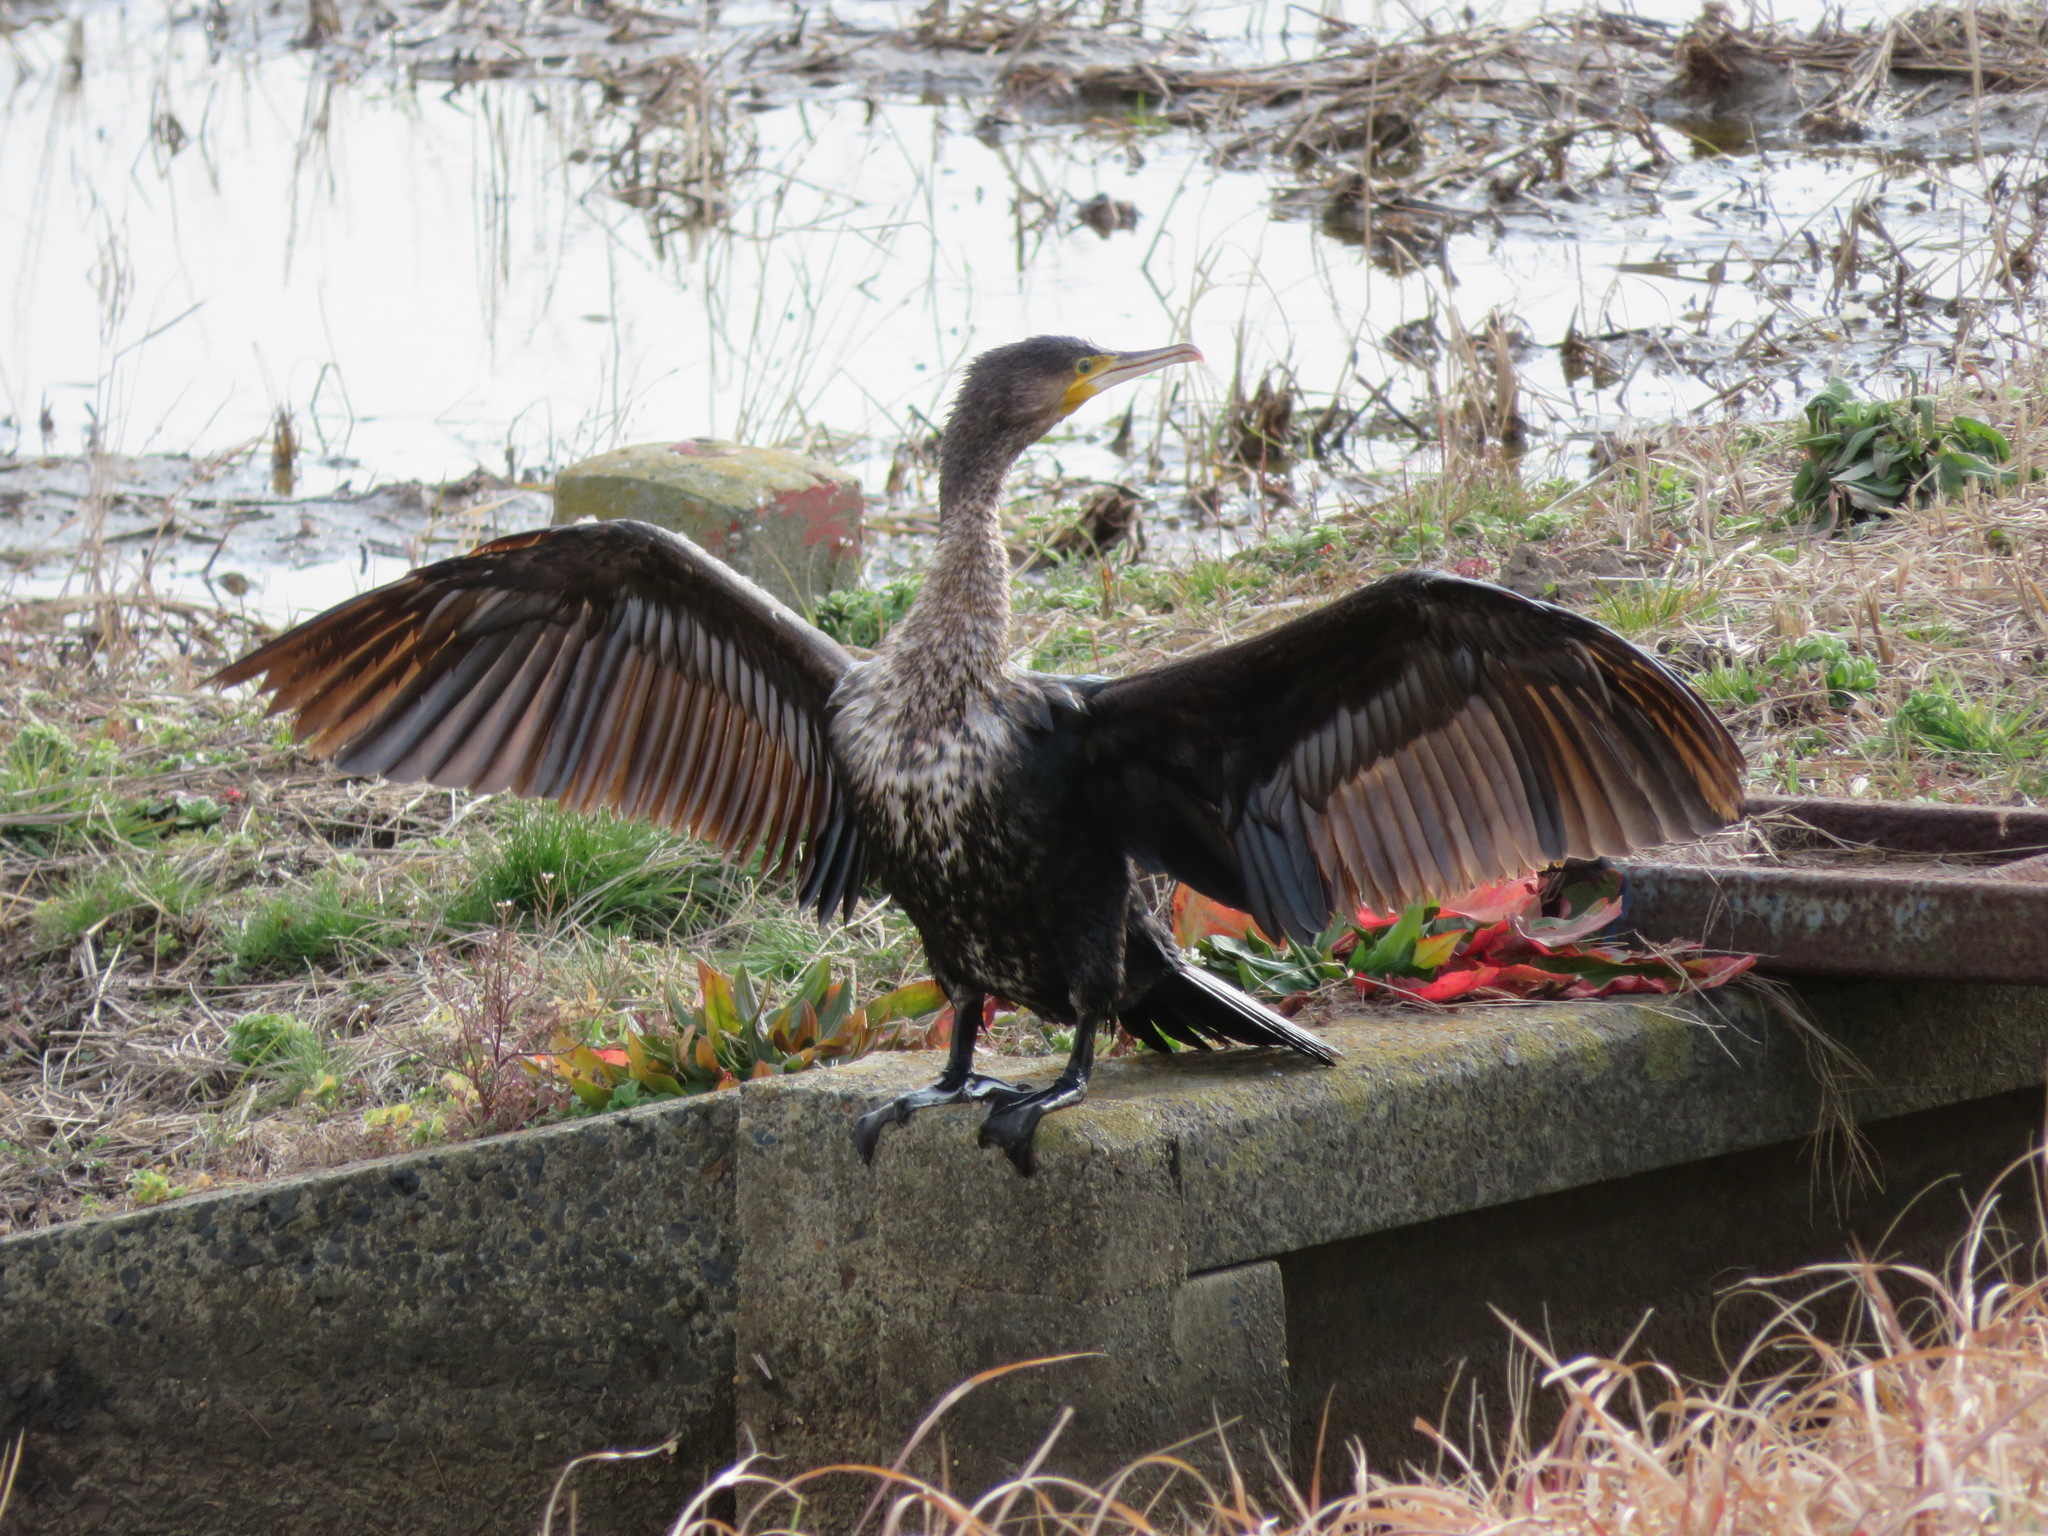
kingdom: Animalia
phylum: Chordata
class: Aves
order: Suliformes
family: Phalacrocoracidae
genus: Phalacrocorax
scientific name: Phalacrocorax carbo
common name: Great cormorant
